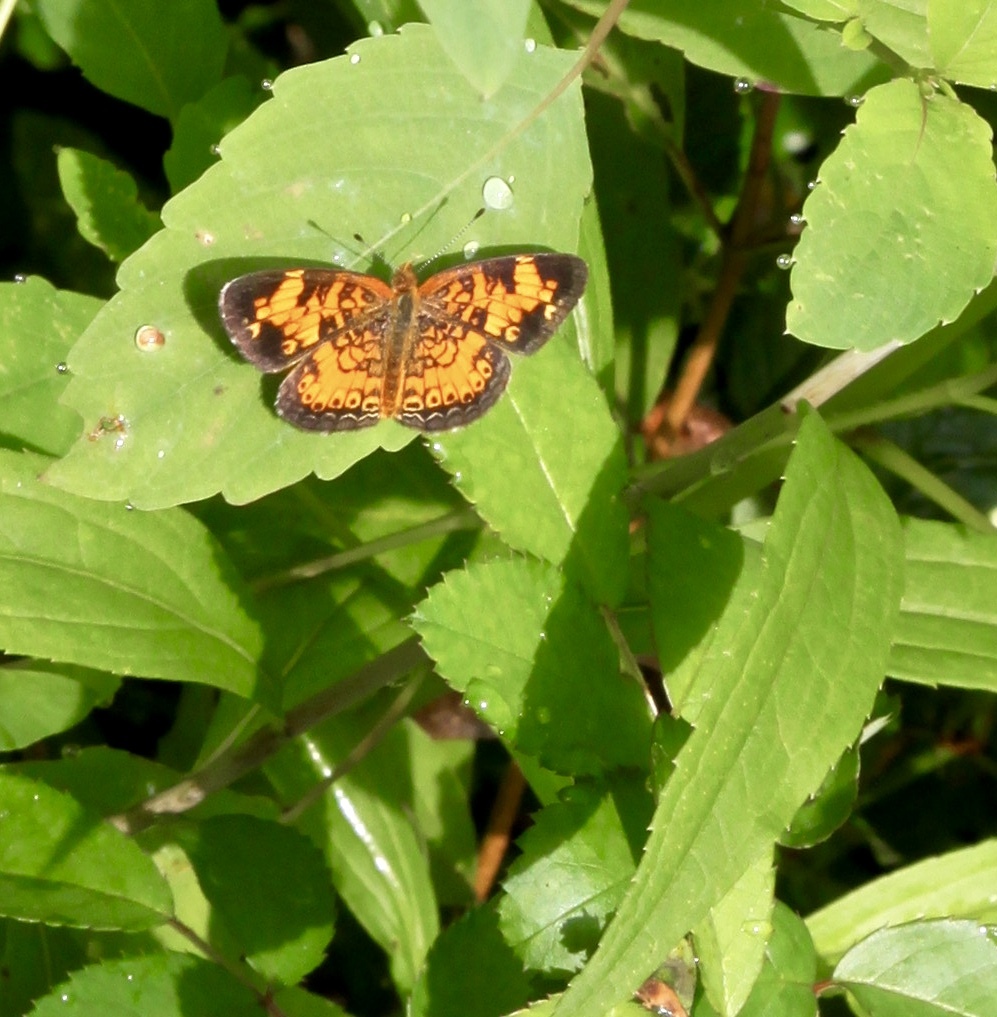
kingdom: Animalia
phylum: Arthropoda
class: Insecta
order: Lepidoptera
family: Nymphalidae
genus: Phyciodes
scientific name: Phyciodes tharos
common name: Pearl crescent
